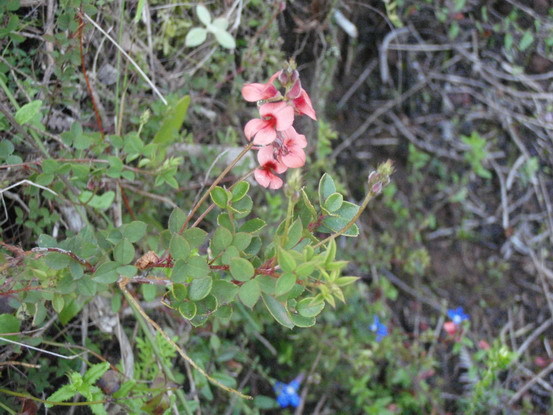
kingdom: Plantae
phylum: Tracheophyta
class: Magnoliopsida
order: Fabales
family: Fabaceae
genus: Indigofera
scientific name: Indigofera erecta
